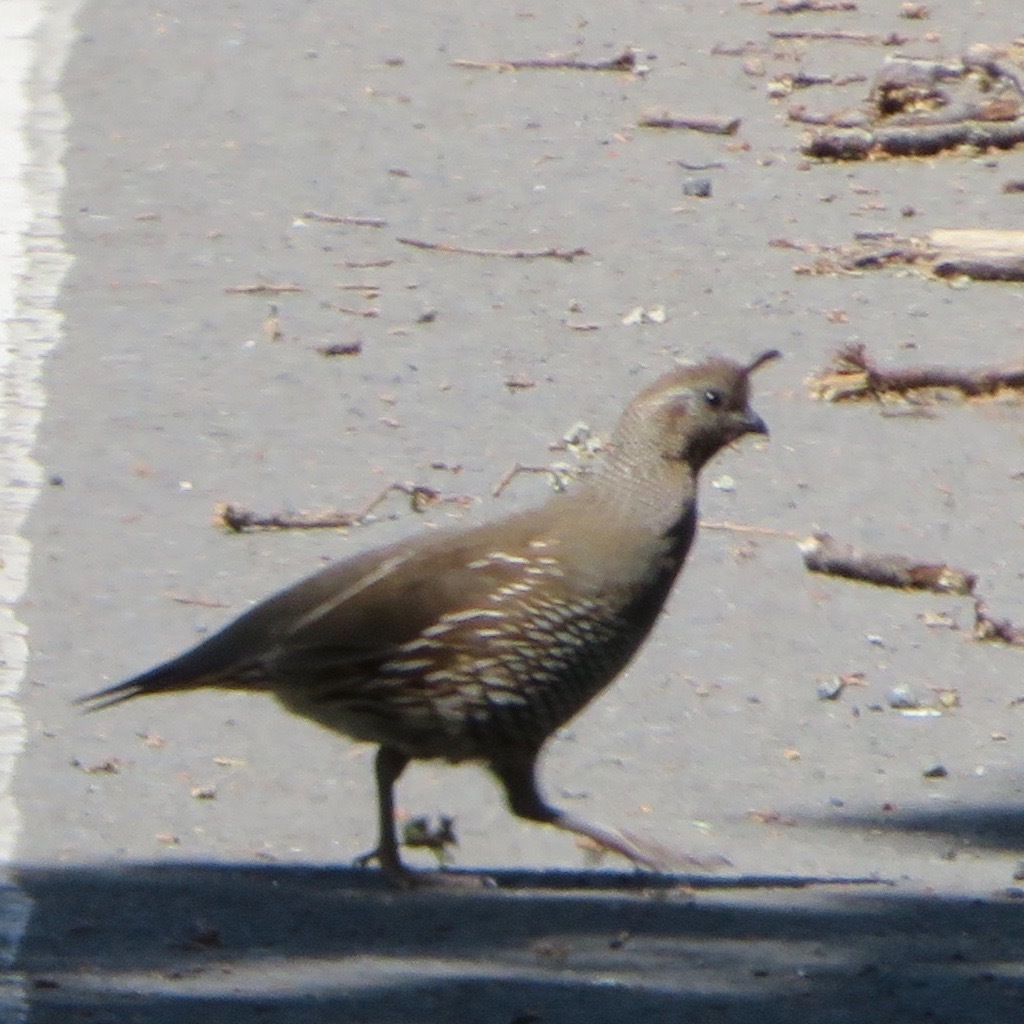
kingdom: Animalia
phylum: Chordata
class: Aves
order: Galliformes
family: Odontophoridae
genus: Callipepla
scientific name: Callipepla californica
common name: California quail
